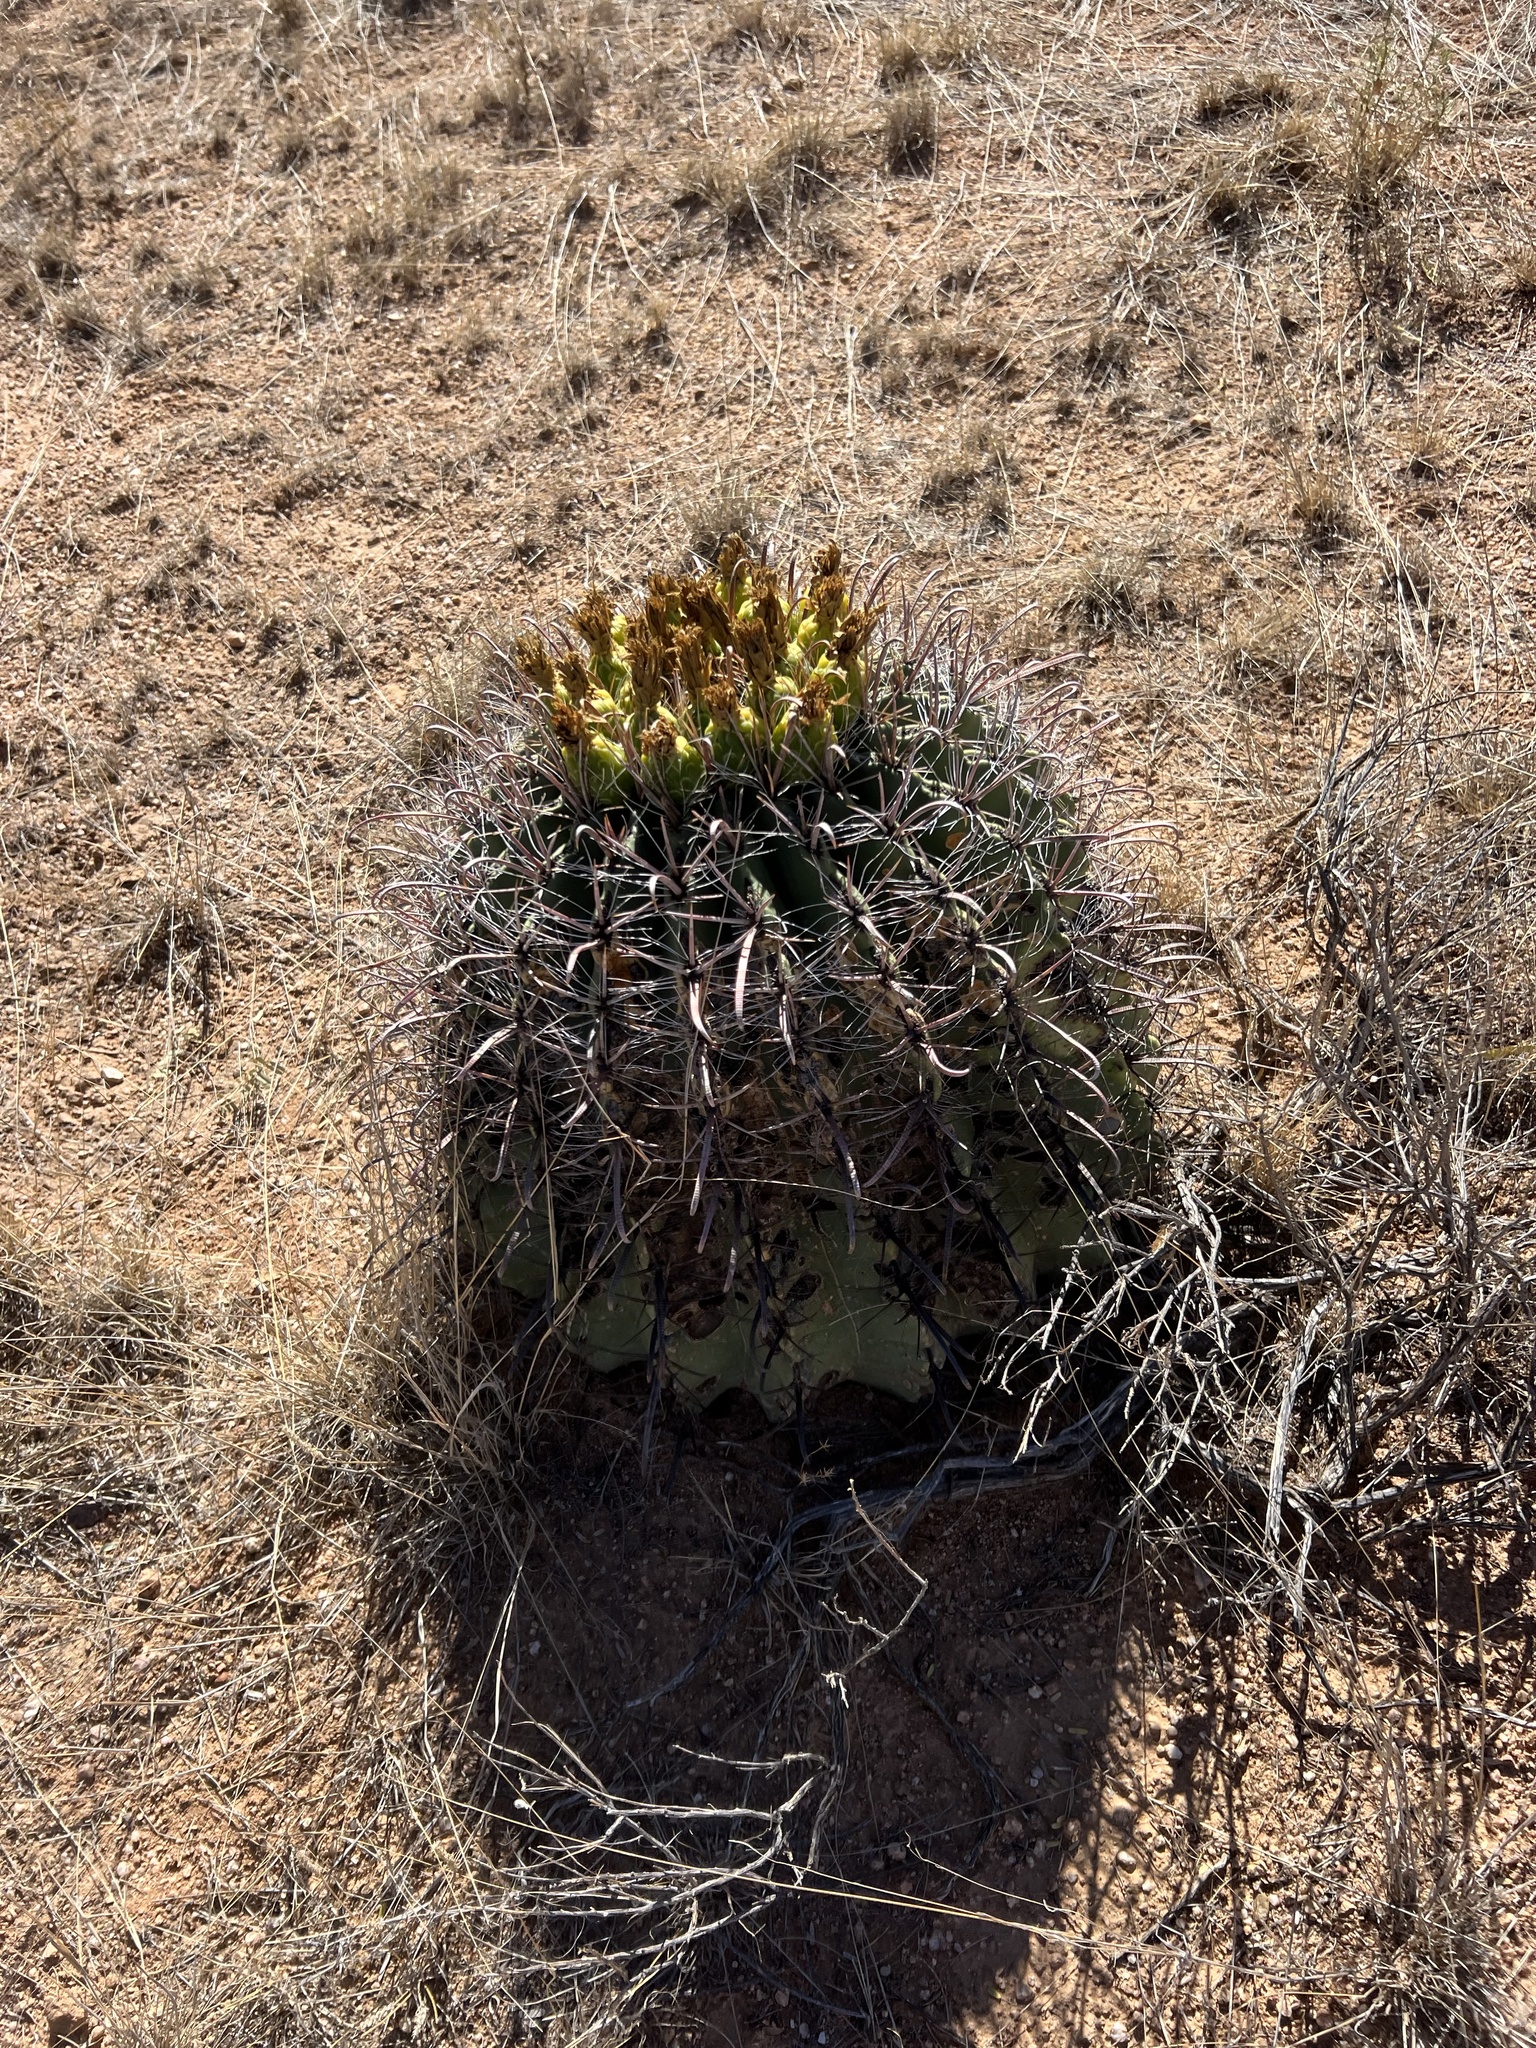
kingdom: Plantae
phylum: Tracheophyta
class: Magnoliopsida
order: Caryophyllales
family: Cactaceae
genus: Ferocactus
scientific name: Ferocactus wislizeni
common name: Candy barrel cactus
